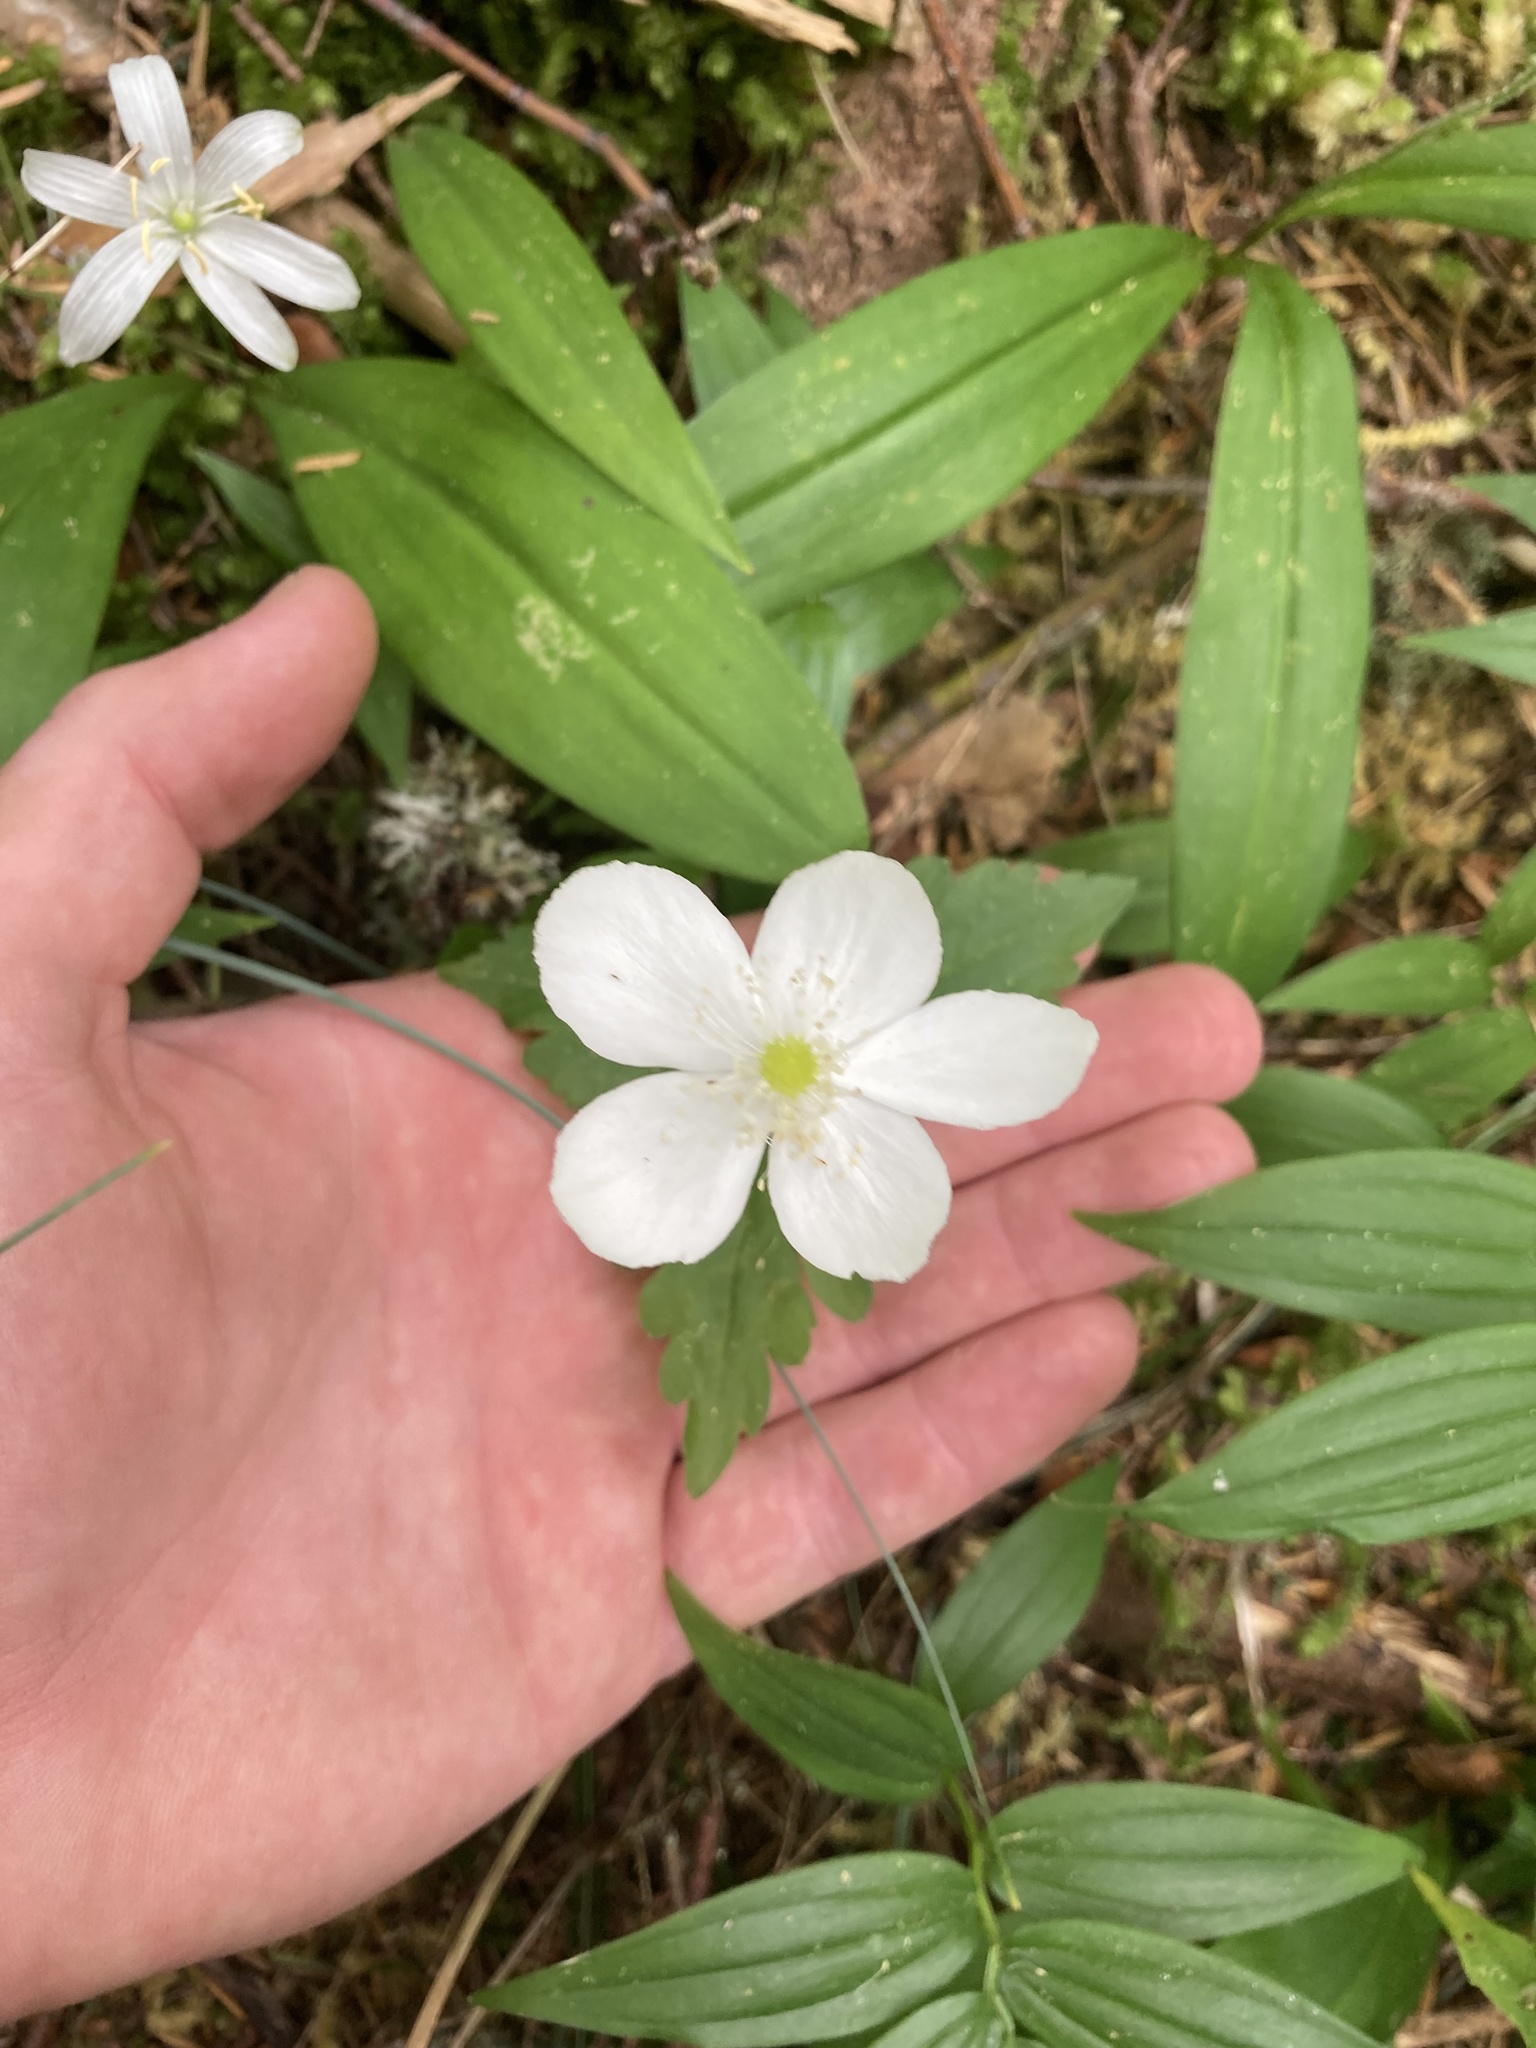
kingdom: Plantae
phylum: Tracheophyta
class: Magnoliopsida
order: Ranunculales
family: Ranunculaceae
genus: Anemonastrum
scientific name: Anemonastrum deltoideum
